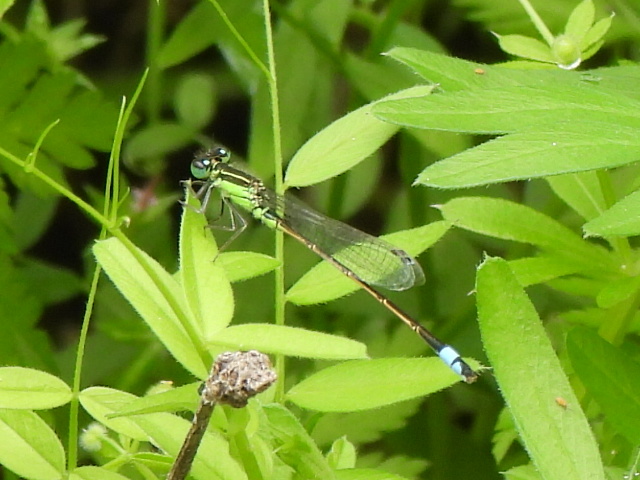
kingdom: Animalia
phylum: Arthropoda
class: Insecta
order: Odonata
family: Coenagrionidae
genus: Ischnura
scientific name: Ischnura ramburii
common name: Rambur's forktail
